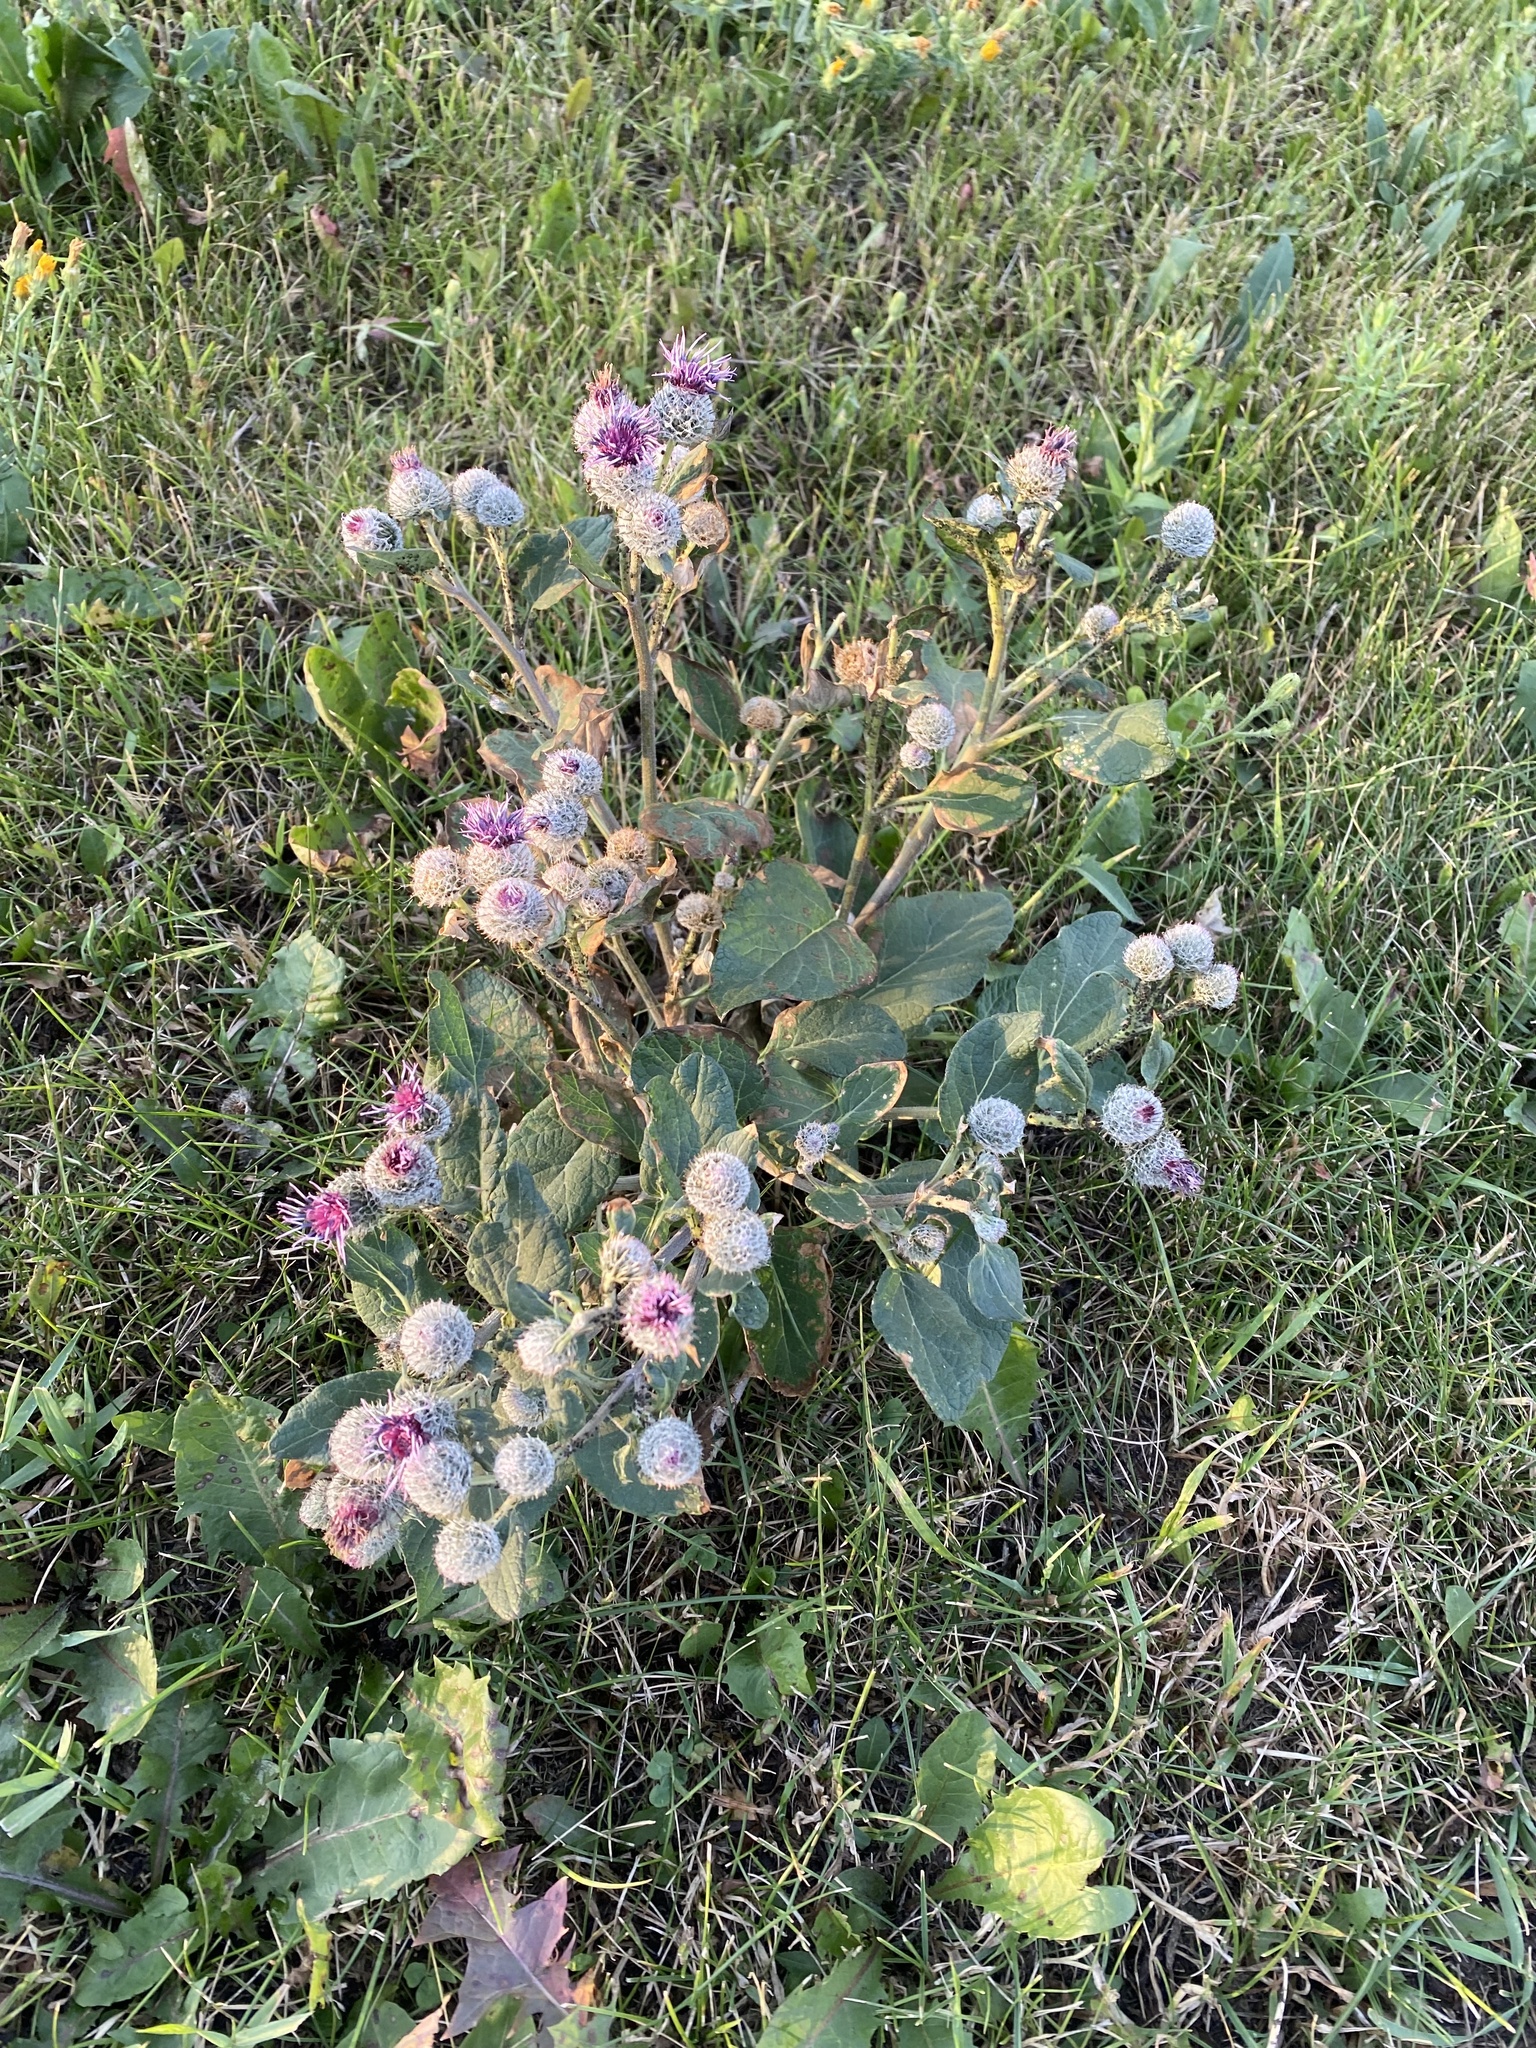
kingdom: Plantae
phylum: Tracheophyta
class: Magnoliopsida
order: Asterales
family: Asteraceae
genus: Arctium
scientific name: Arctium tomentosum
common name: Woolly burdock
